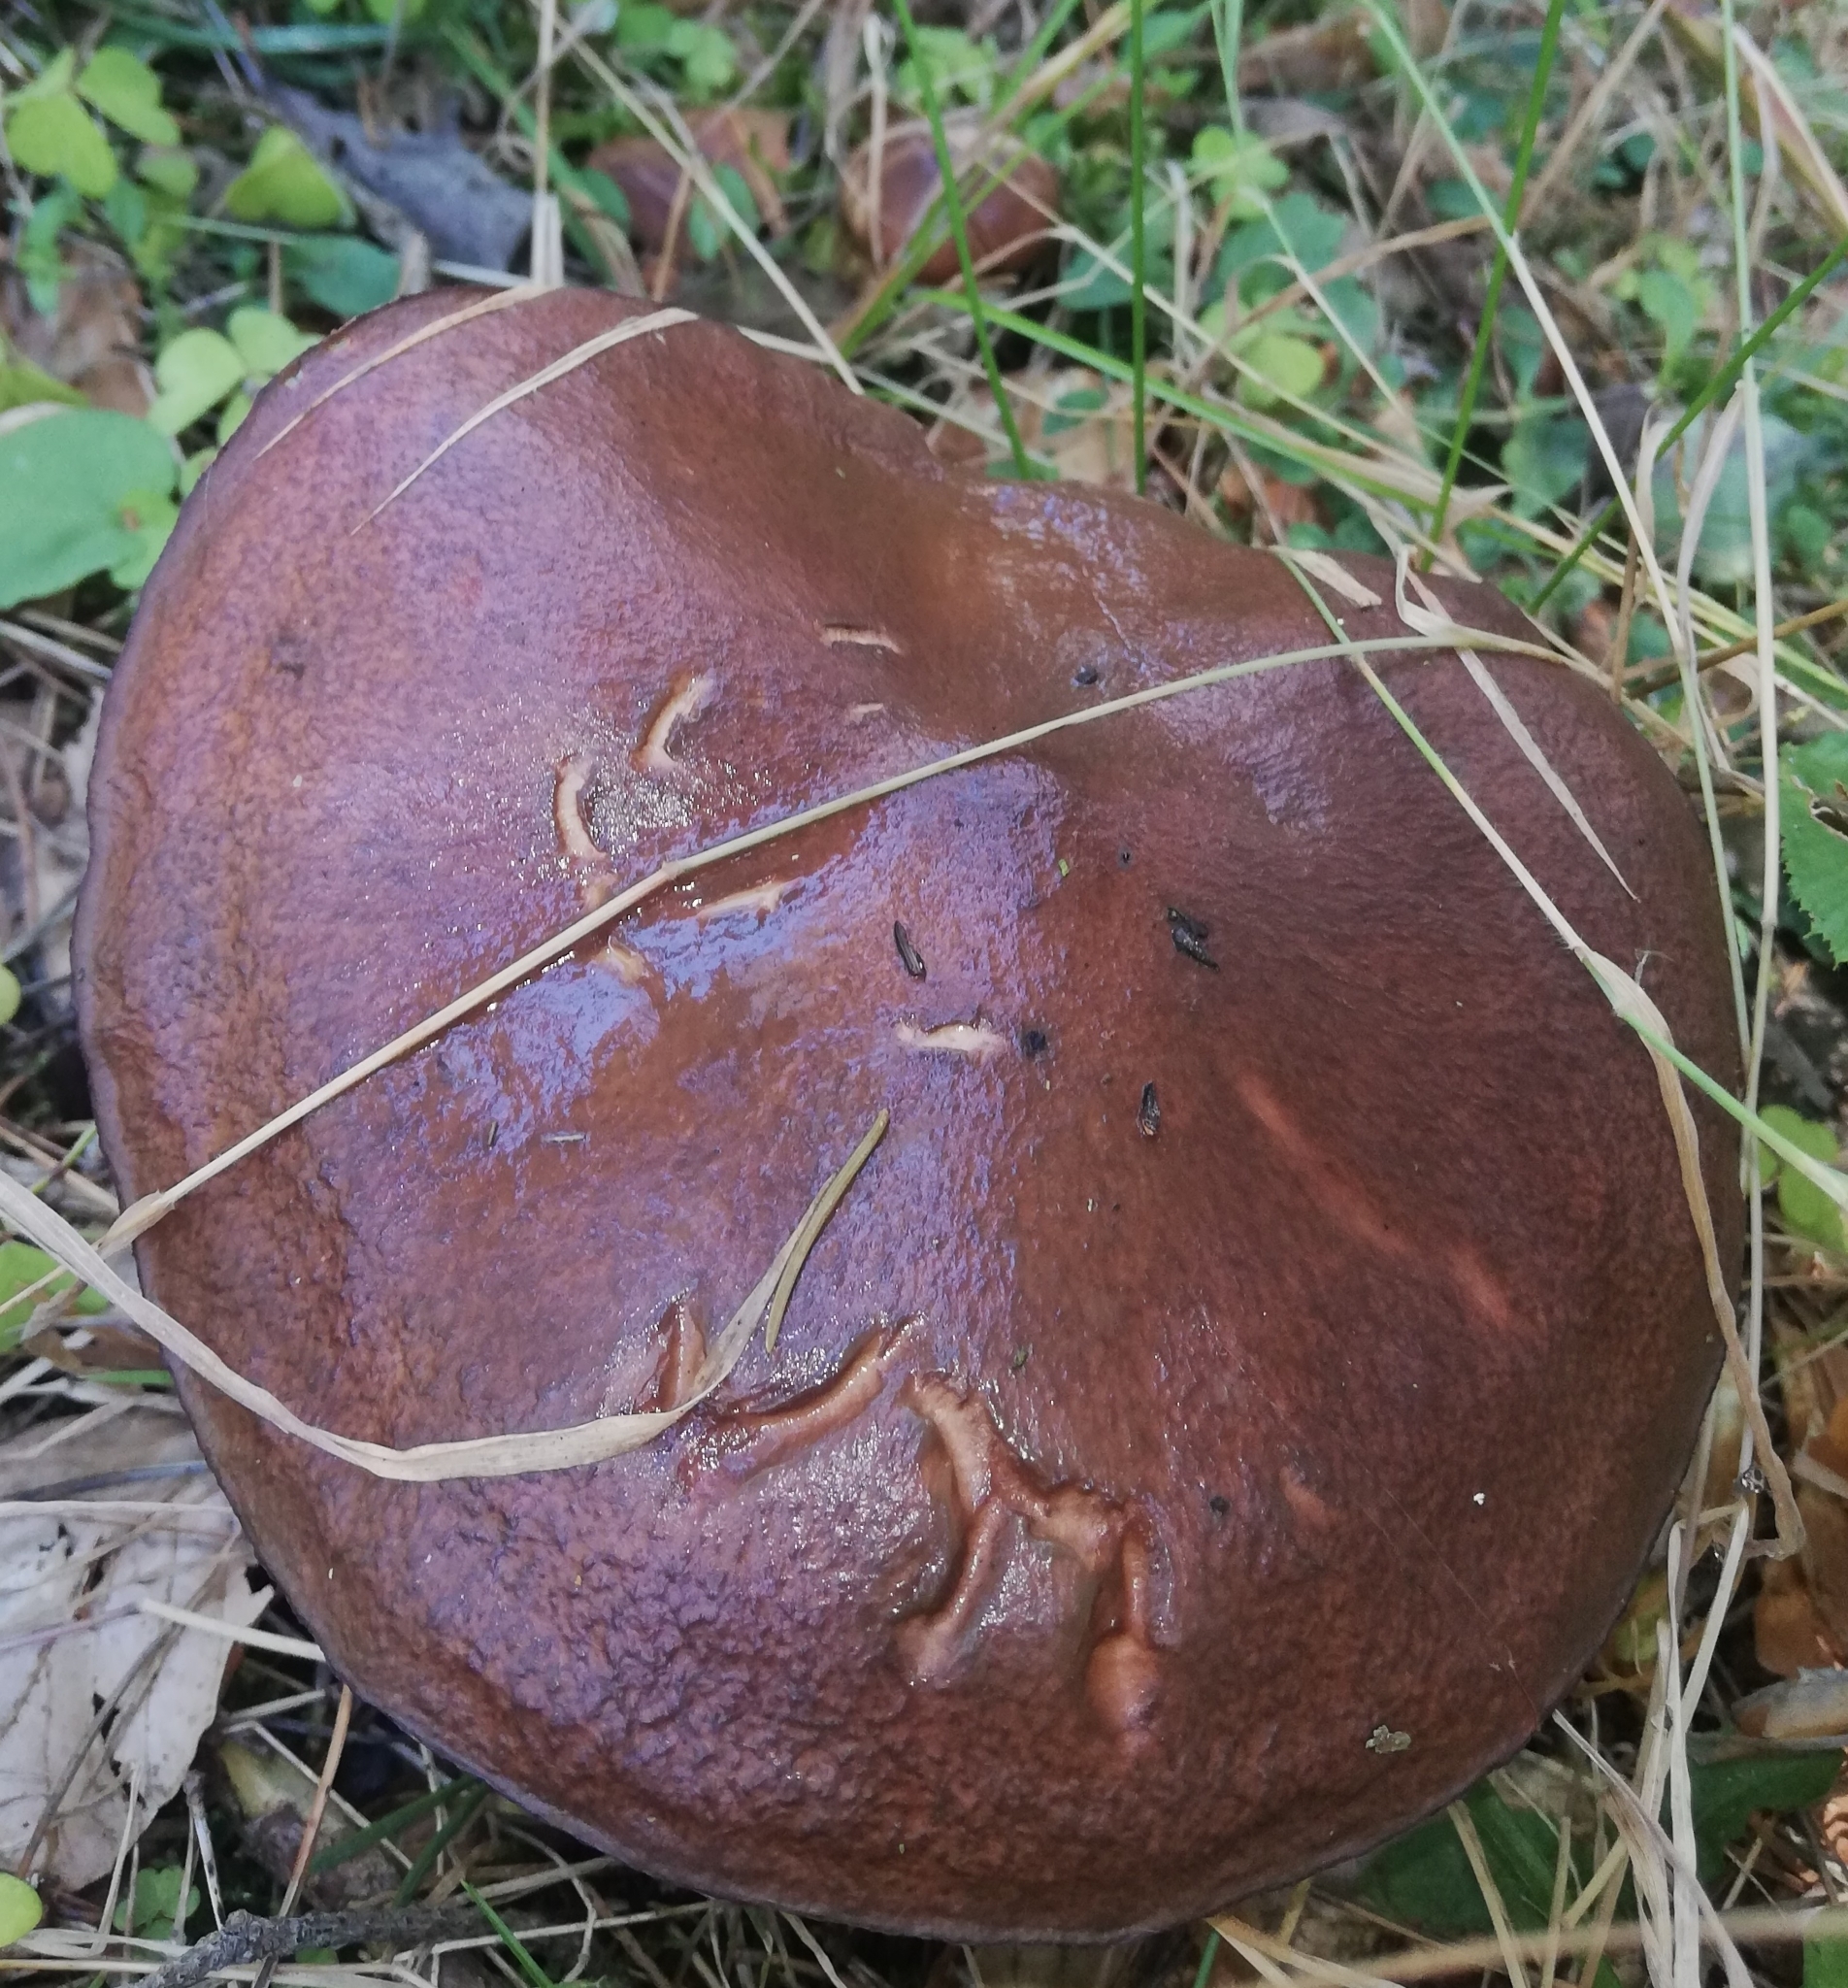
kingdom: Fungi
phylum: Basidiomycota
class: Agaricomycetes
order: Boletales
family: Suillaceae
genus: Suillus
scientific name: Suillus luteus
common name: Slippery jack
